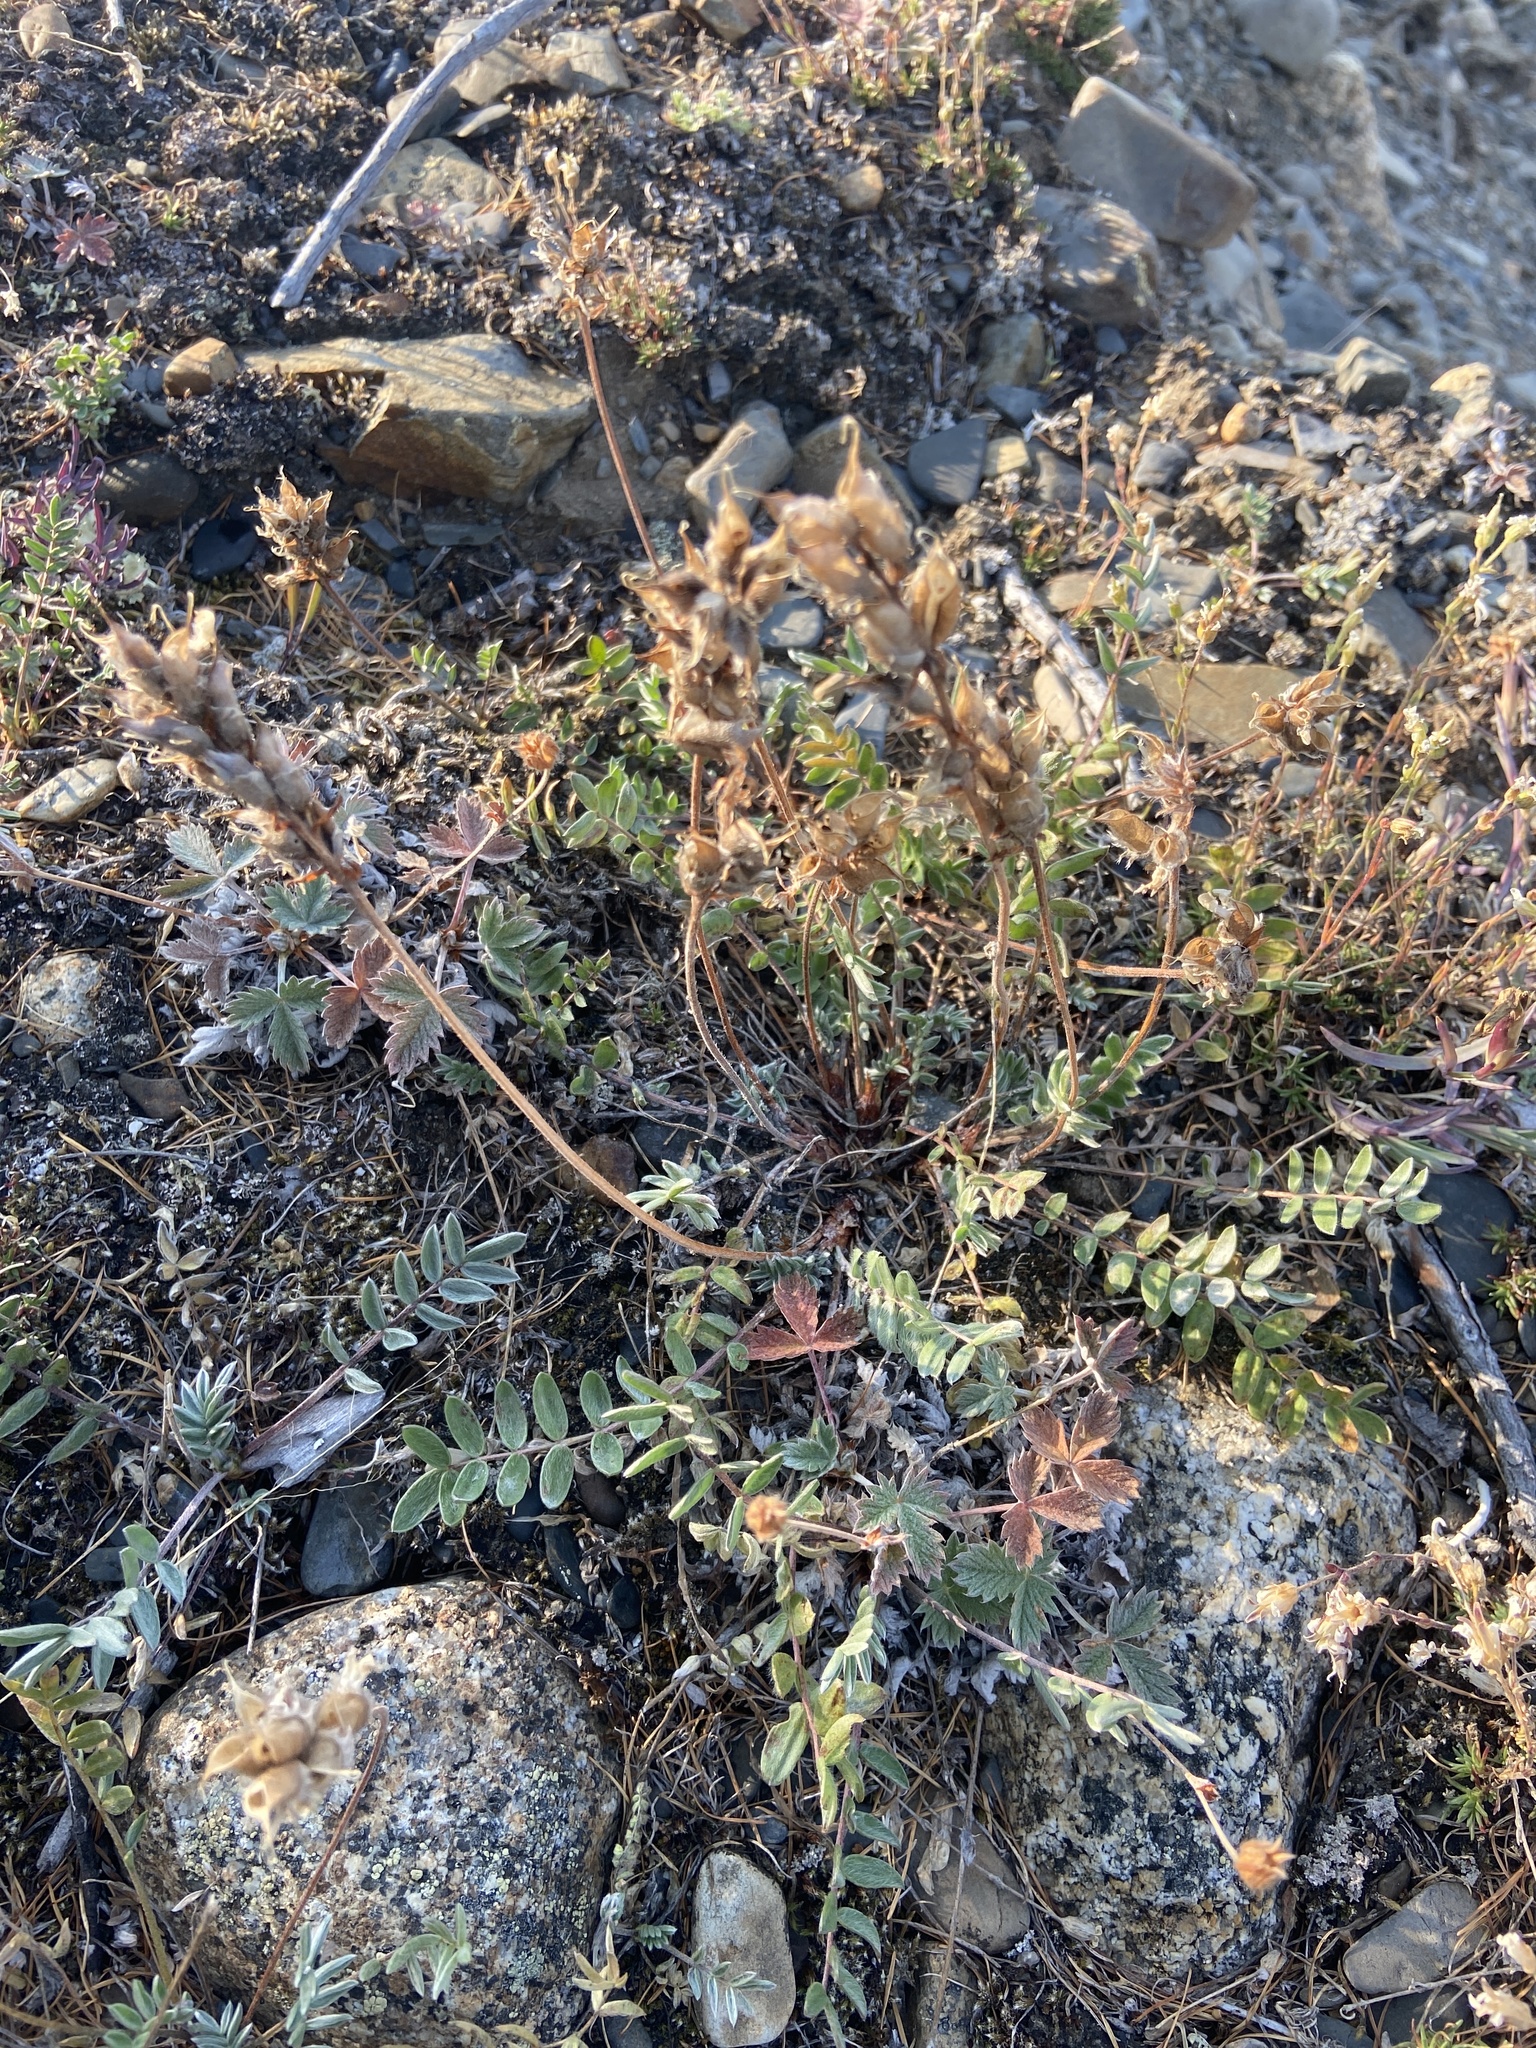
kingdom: Plantae
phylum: Tracheophyta
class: Magnoliopsida
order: Fabales
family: Fabaceae
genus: Oxytropis
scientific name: Oxytropis leucantha
